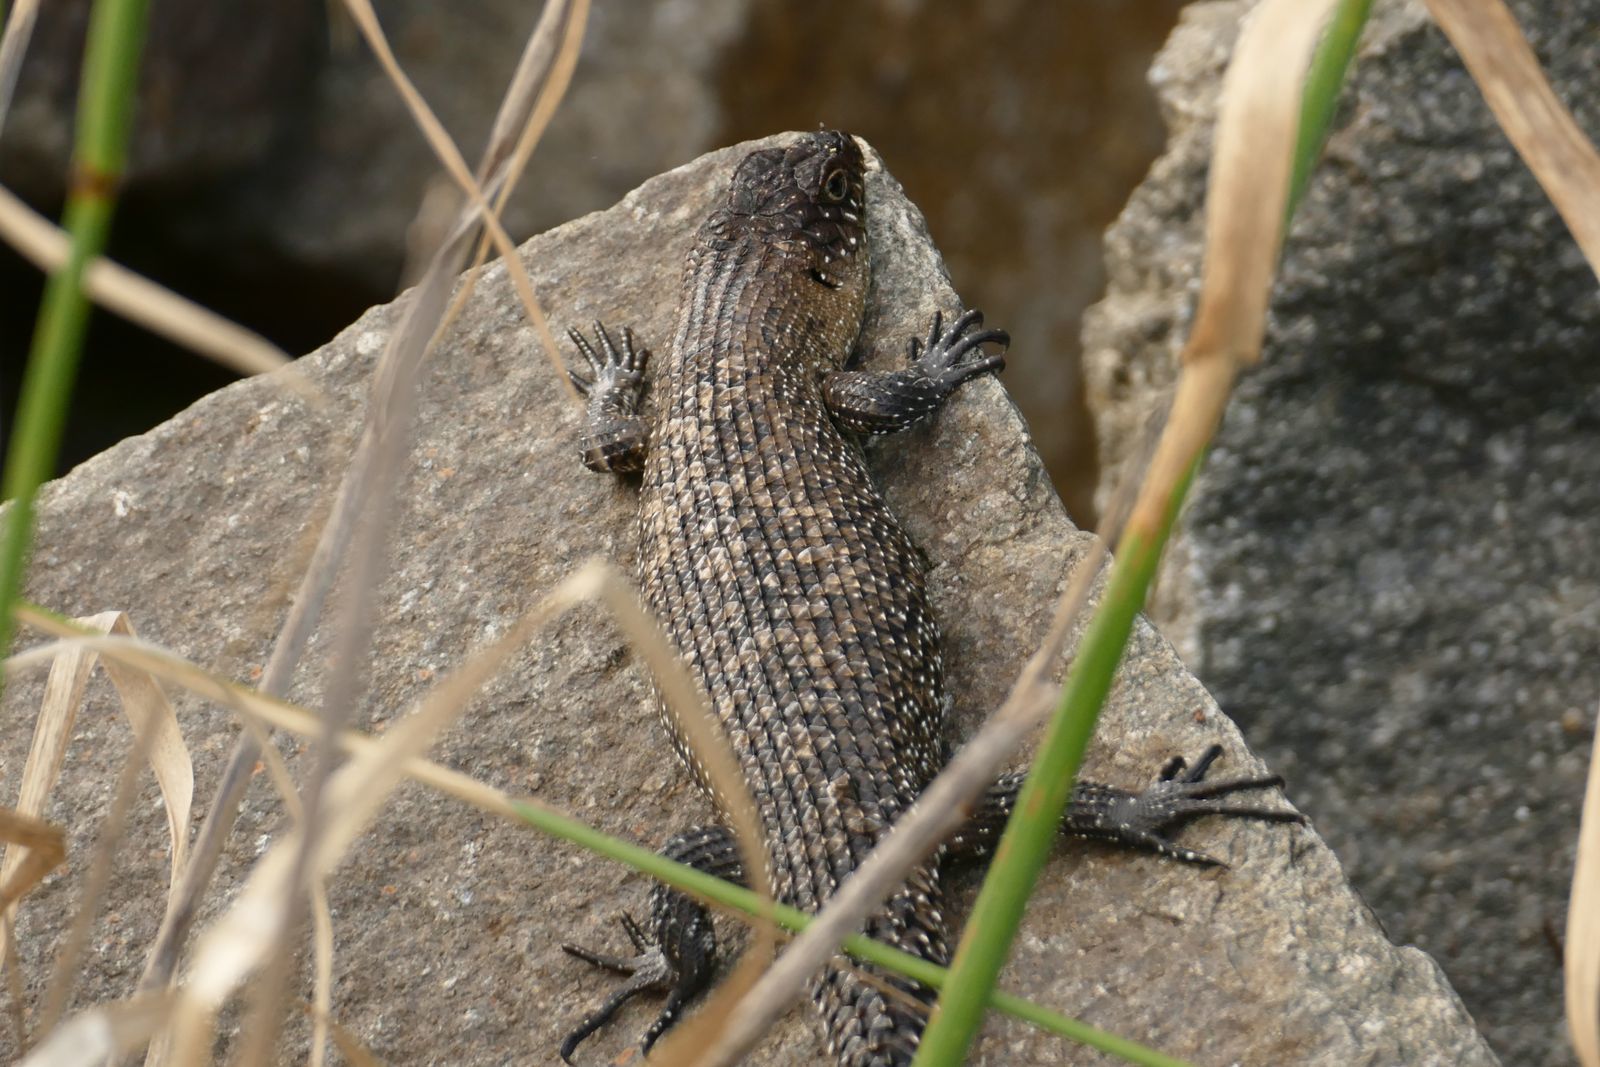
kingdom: Animalia
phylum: Chordata
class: Squamata
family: Scincidae
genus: Egernia
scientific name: Egernia cunninghami
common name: Cunningham's skink
